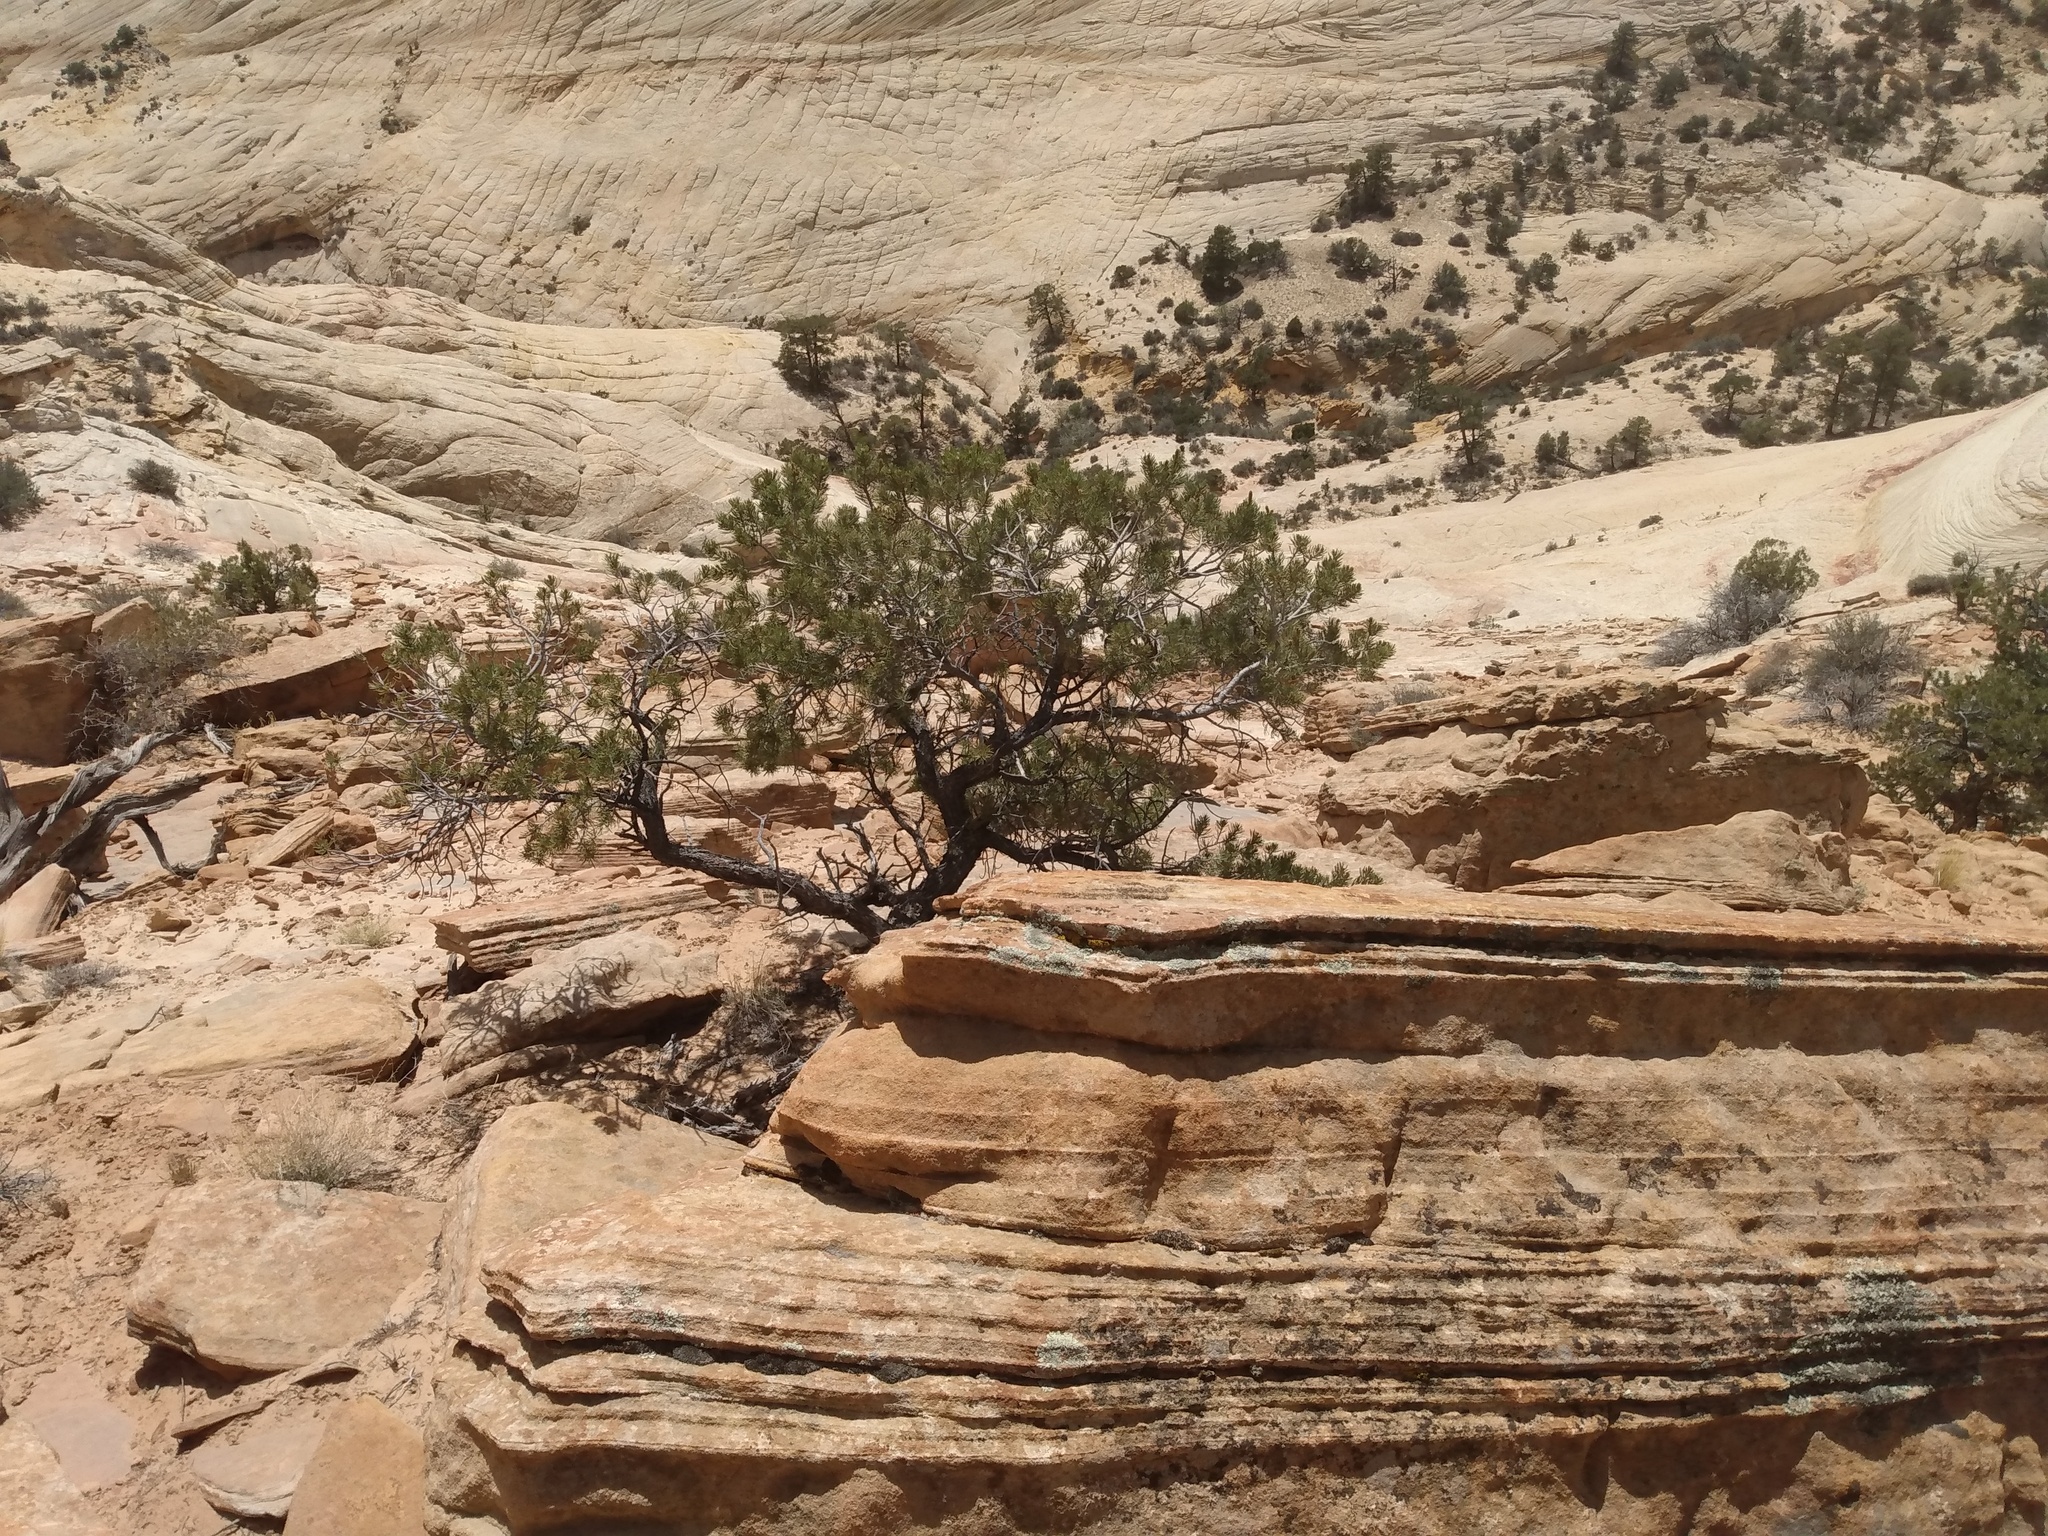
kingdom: Plantae
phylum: Tracheophyta
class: Pinopsida
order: Pinales
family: Pinaceae
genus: Pinus
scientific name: Pinus edulis
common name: Colorado pinyon
